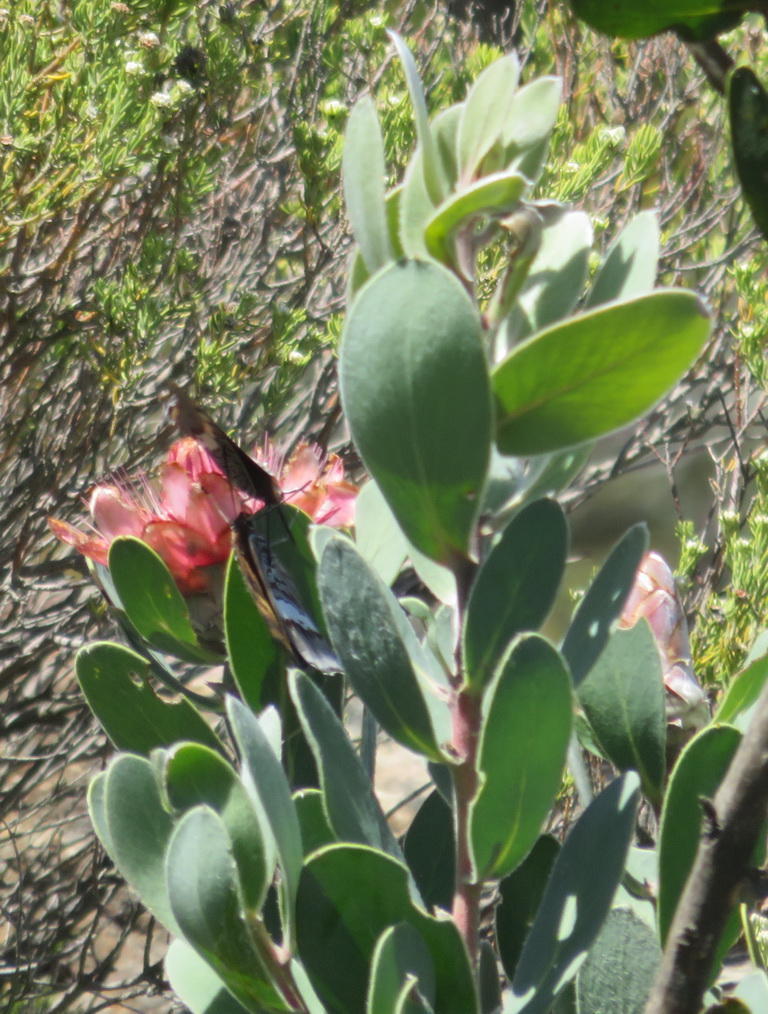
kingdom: Plantae
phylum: Tracheophyta
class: Magnoliopsida
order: Proteales
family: Proteaceae
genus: Protea
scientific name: Protea punctata
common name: Water sugarbush
